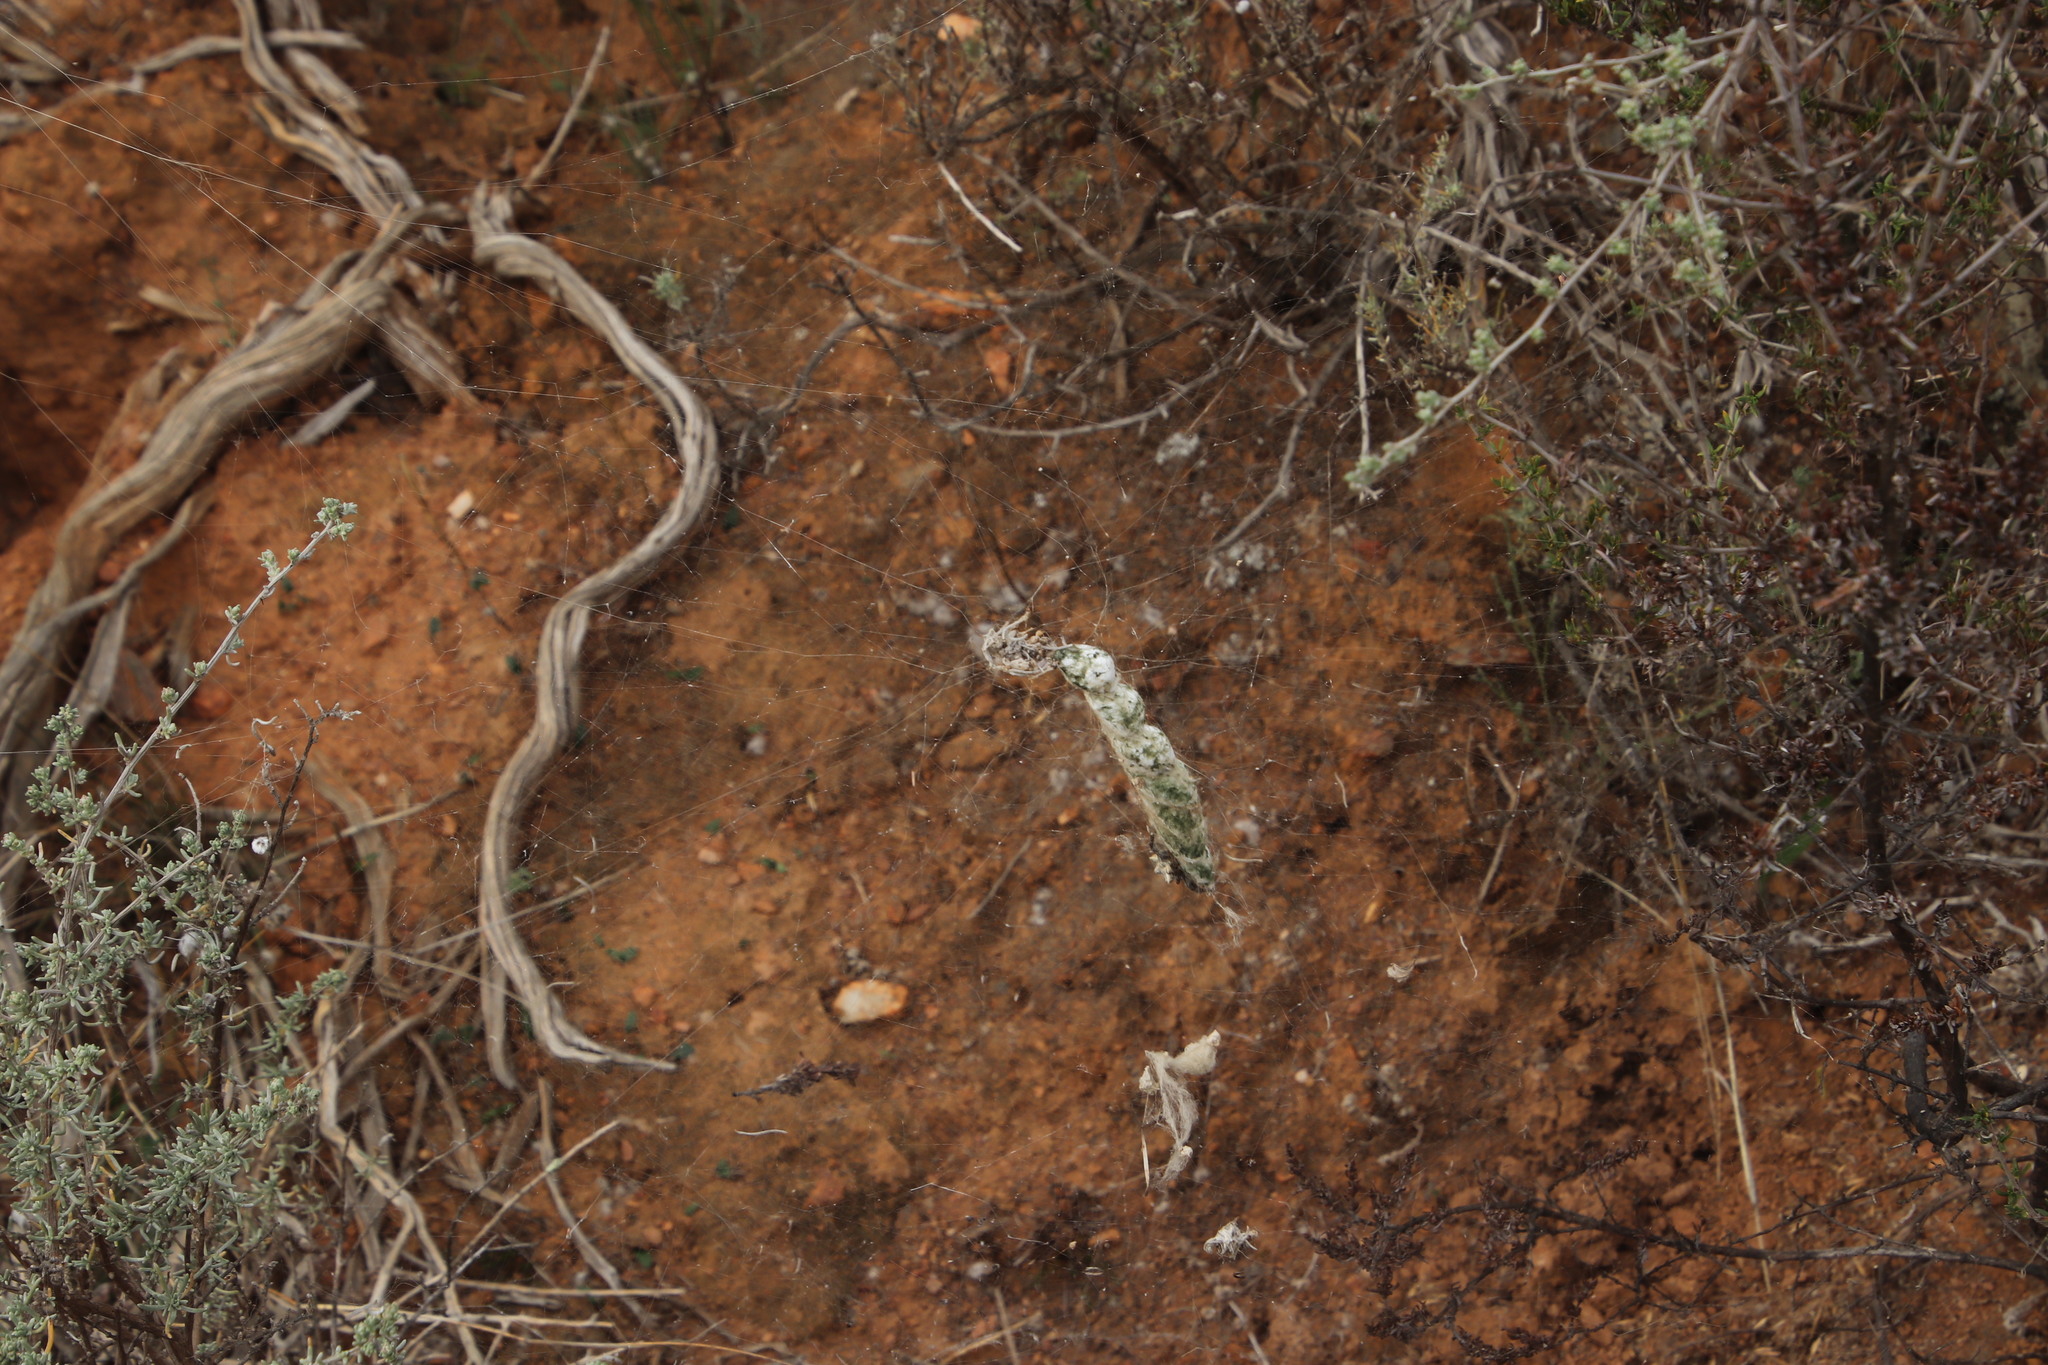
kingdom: Animalia
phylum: Arthropoda
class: Arachnida
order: Araneae
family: Araneidae
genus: Cyrtophora
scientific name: Cyrtophora citricola
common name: Orb weavers
